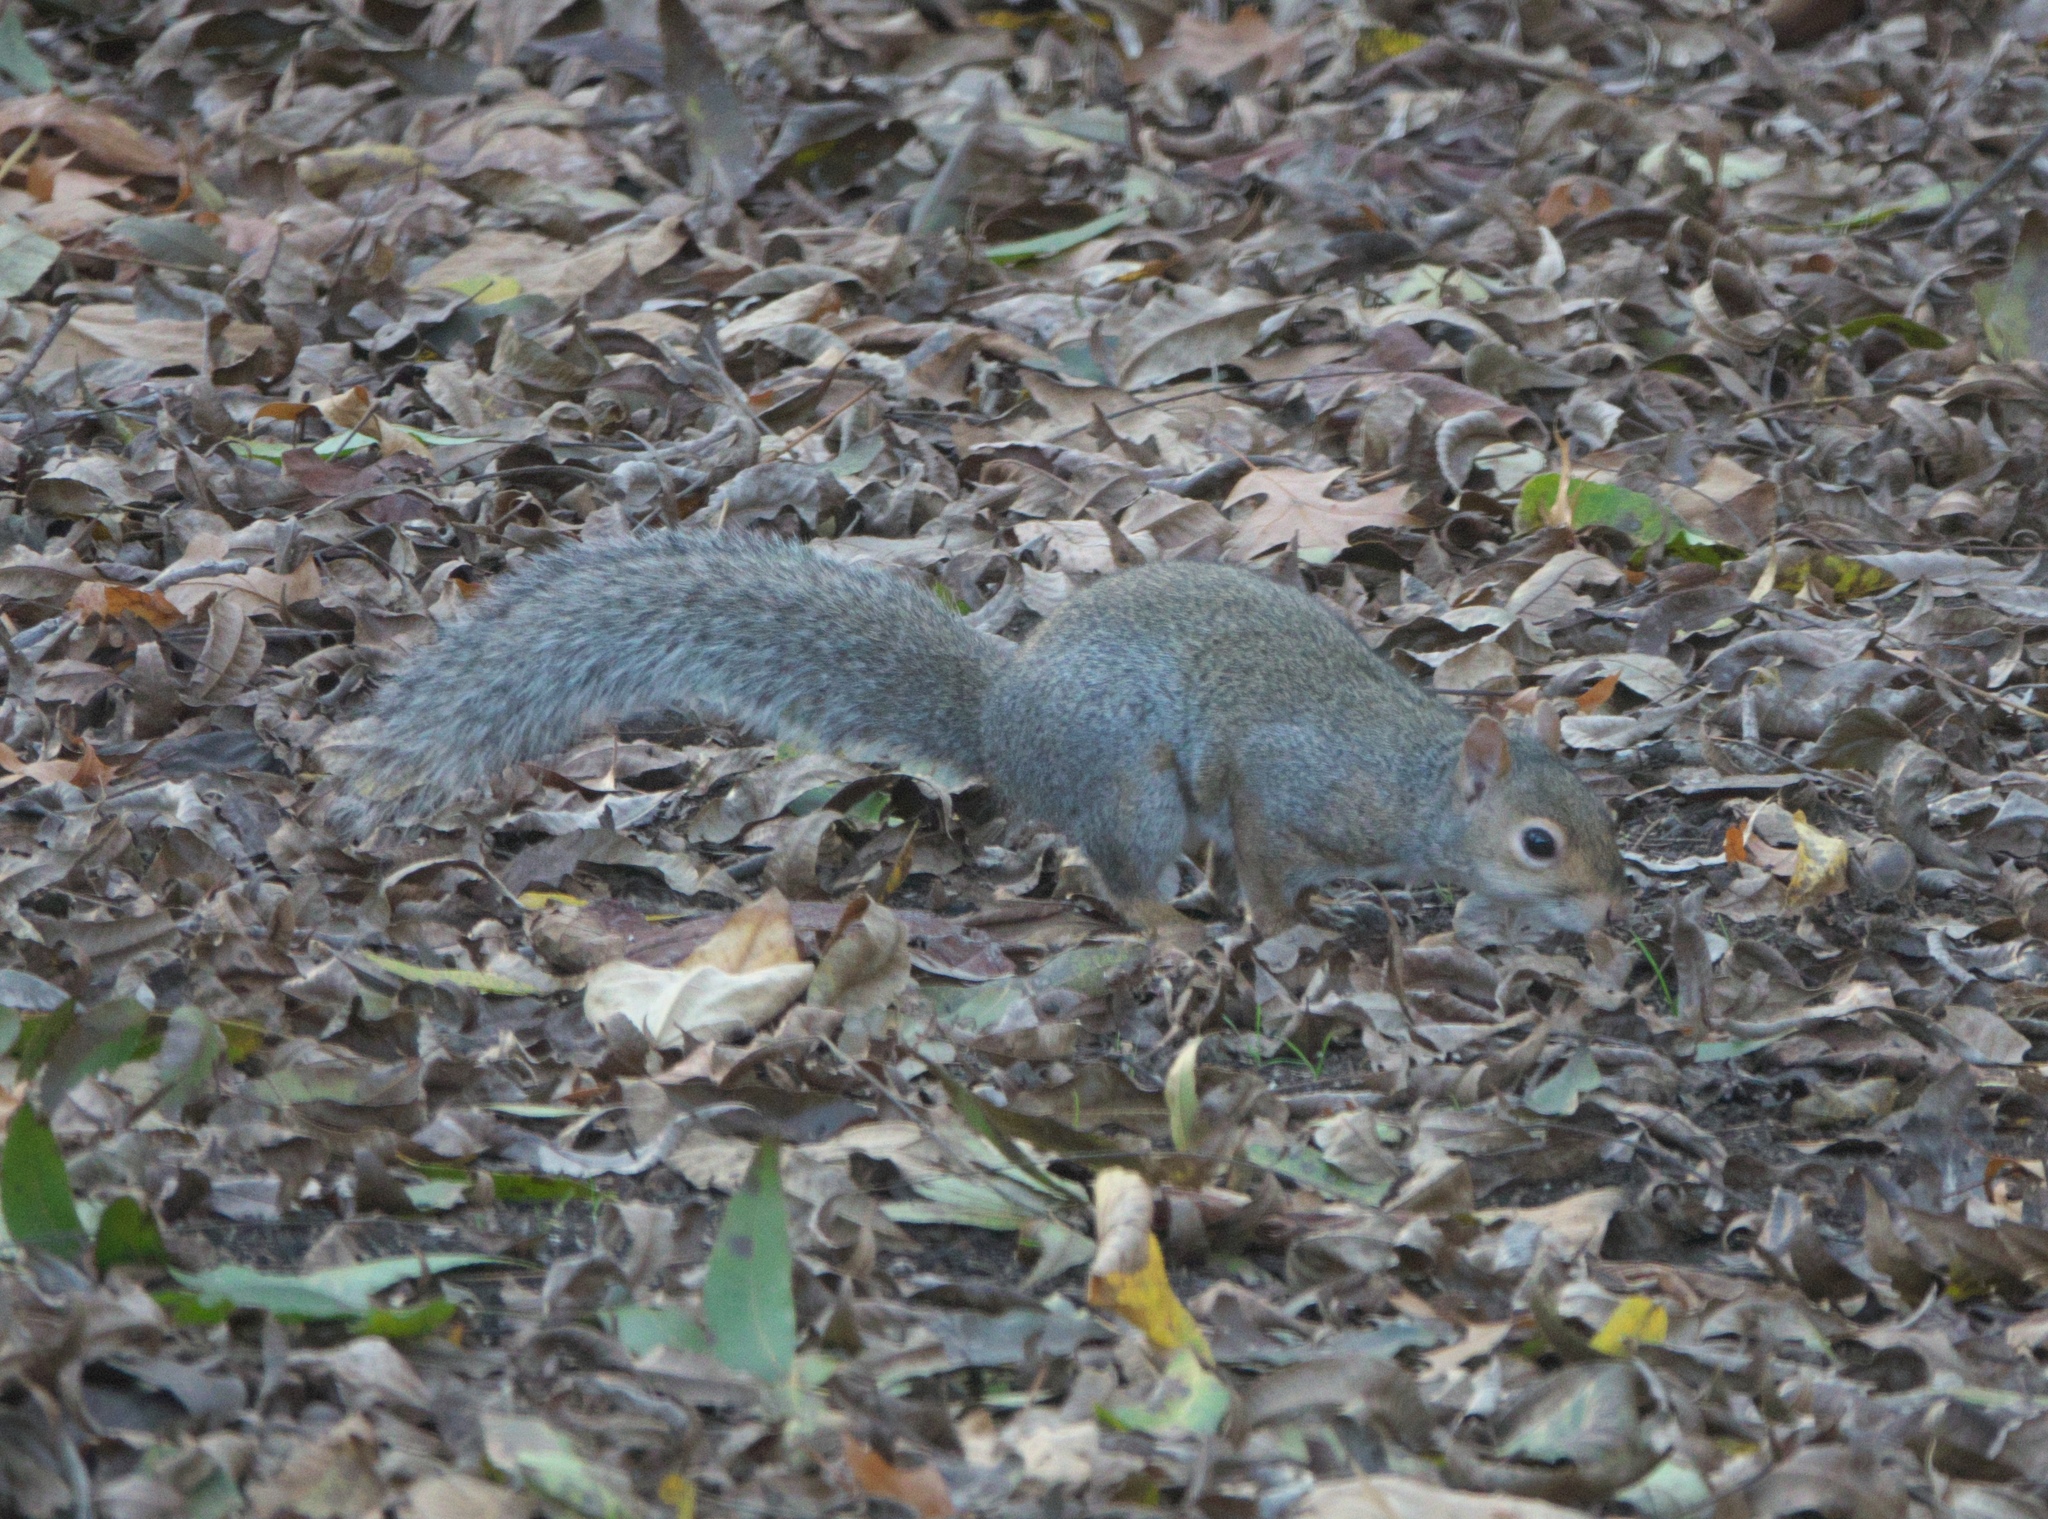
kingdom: Animalia
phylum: Chordata
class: Mammalia
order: Rodentia
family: Sciuridae
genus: Sciurus
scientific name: Sciurus carolinensis
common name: Eastern gray squirrel
